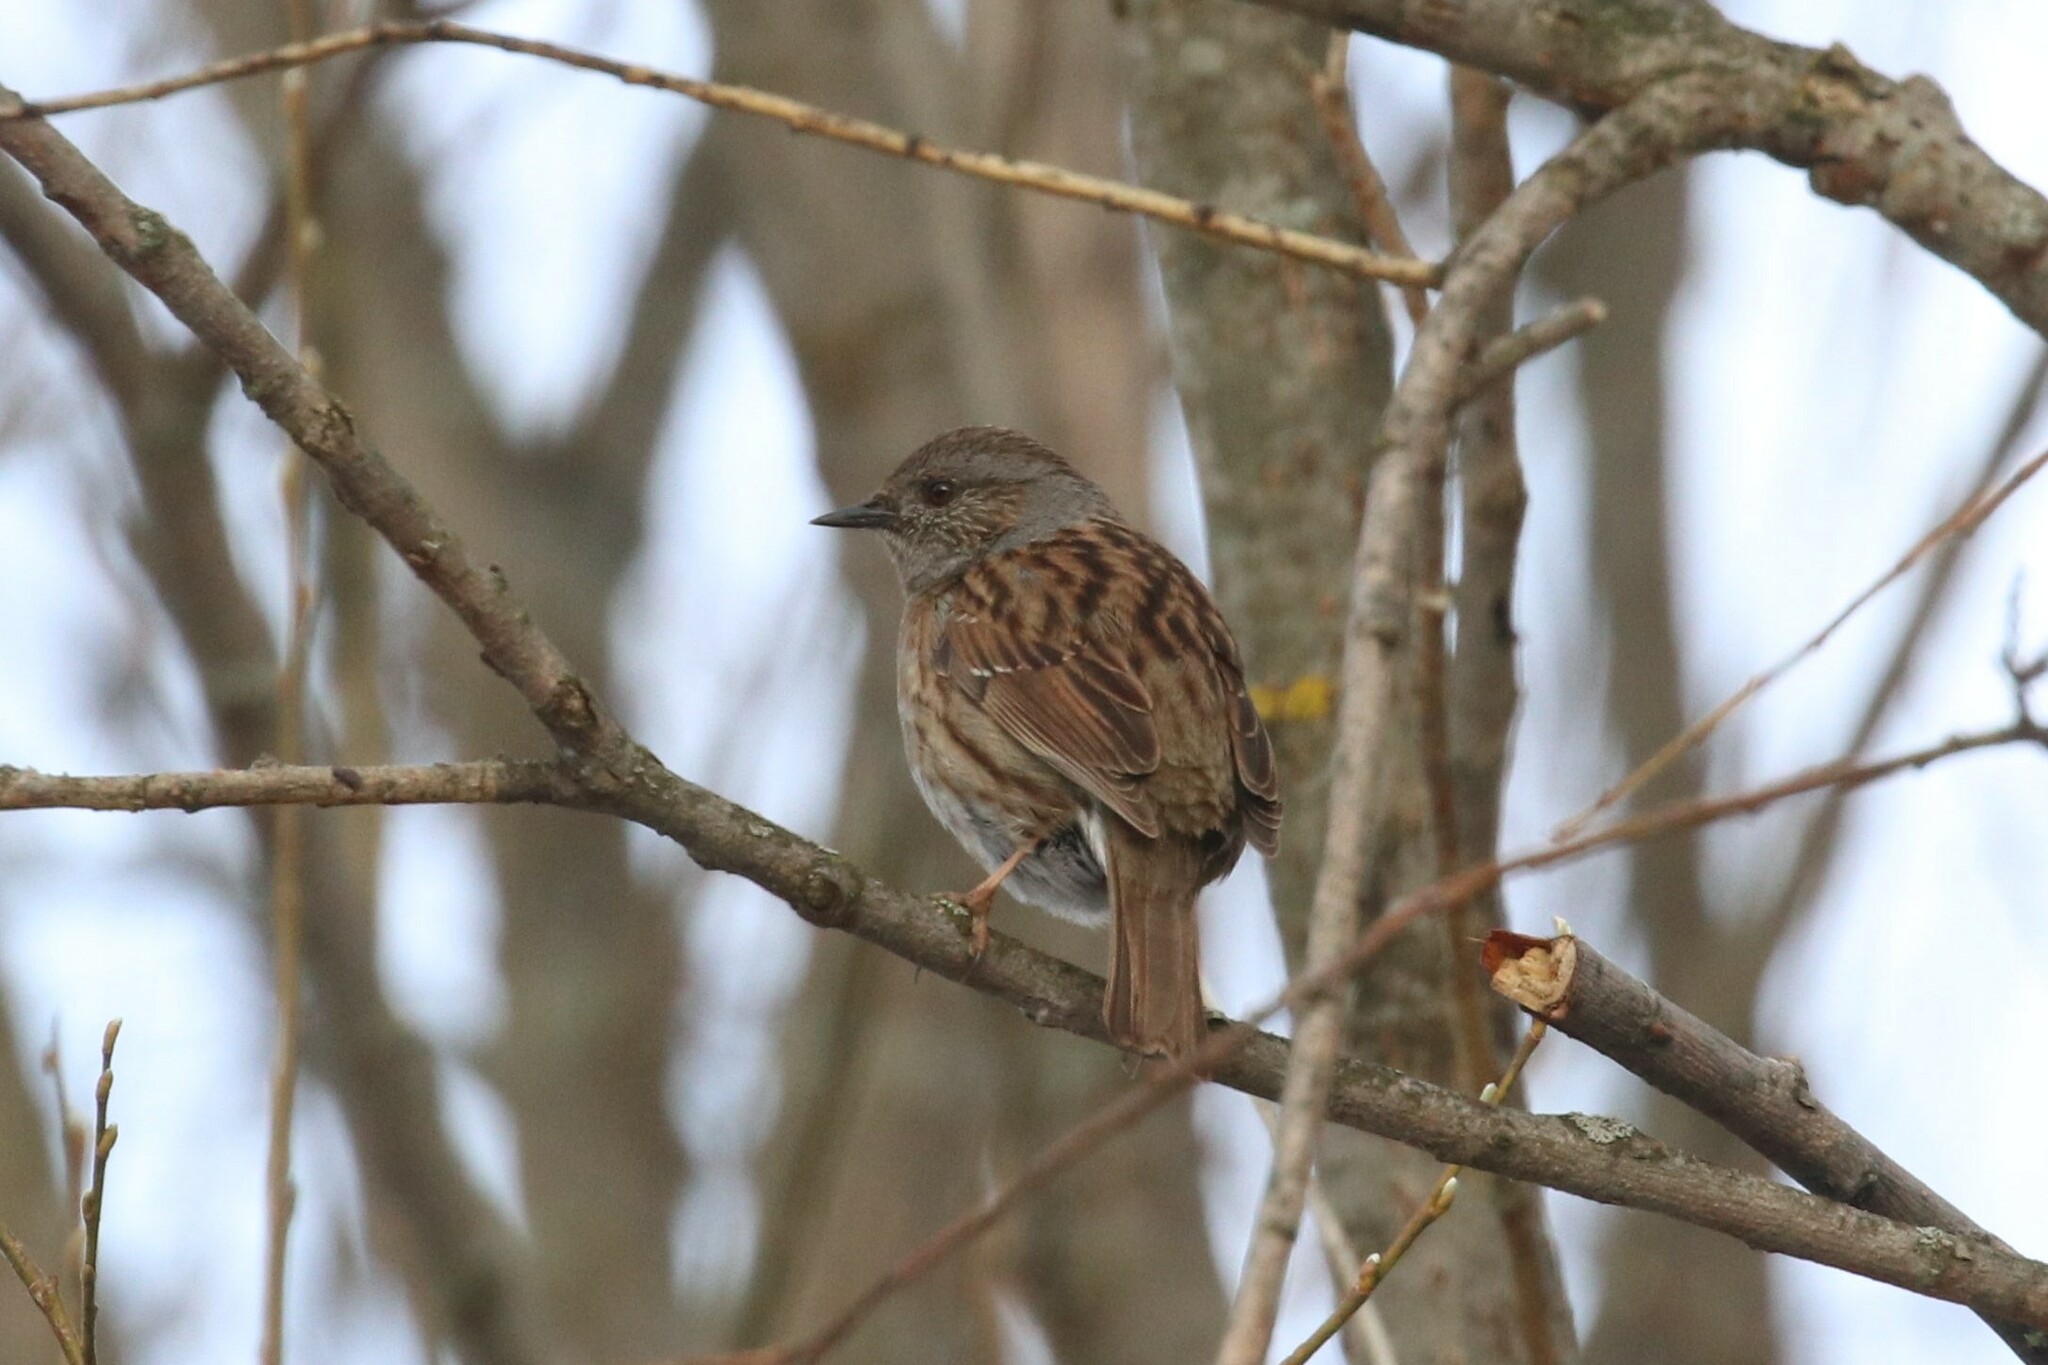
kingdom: Animalia
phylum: Chordata
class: Aves
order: Passeriformes
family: Prunellidae
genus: Prunella
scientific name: Prunella modularis
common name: Dunnock
